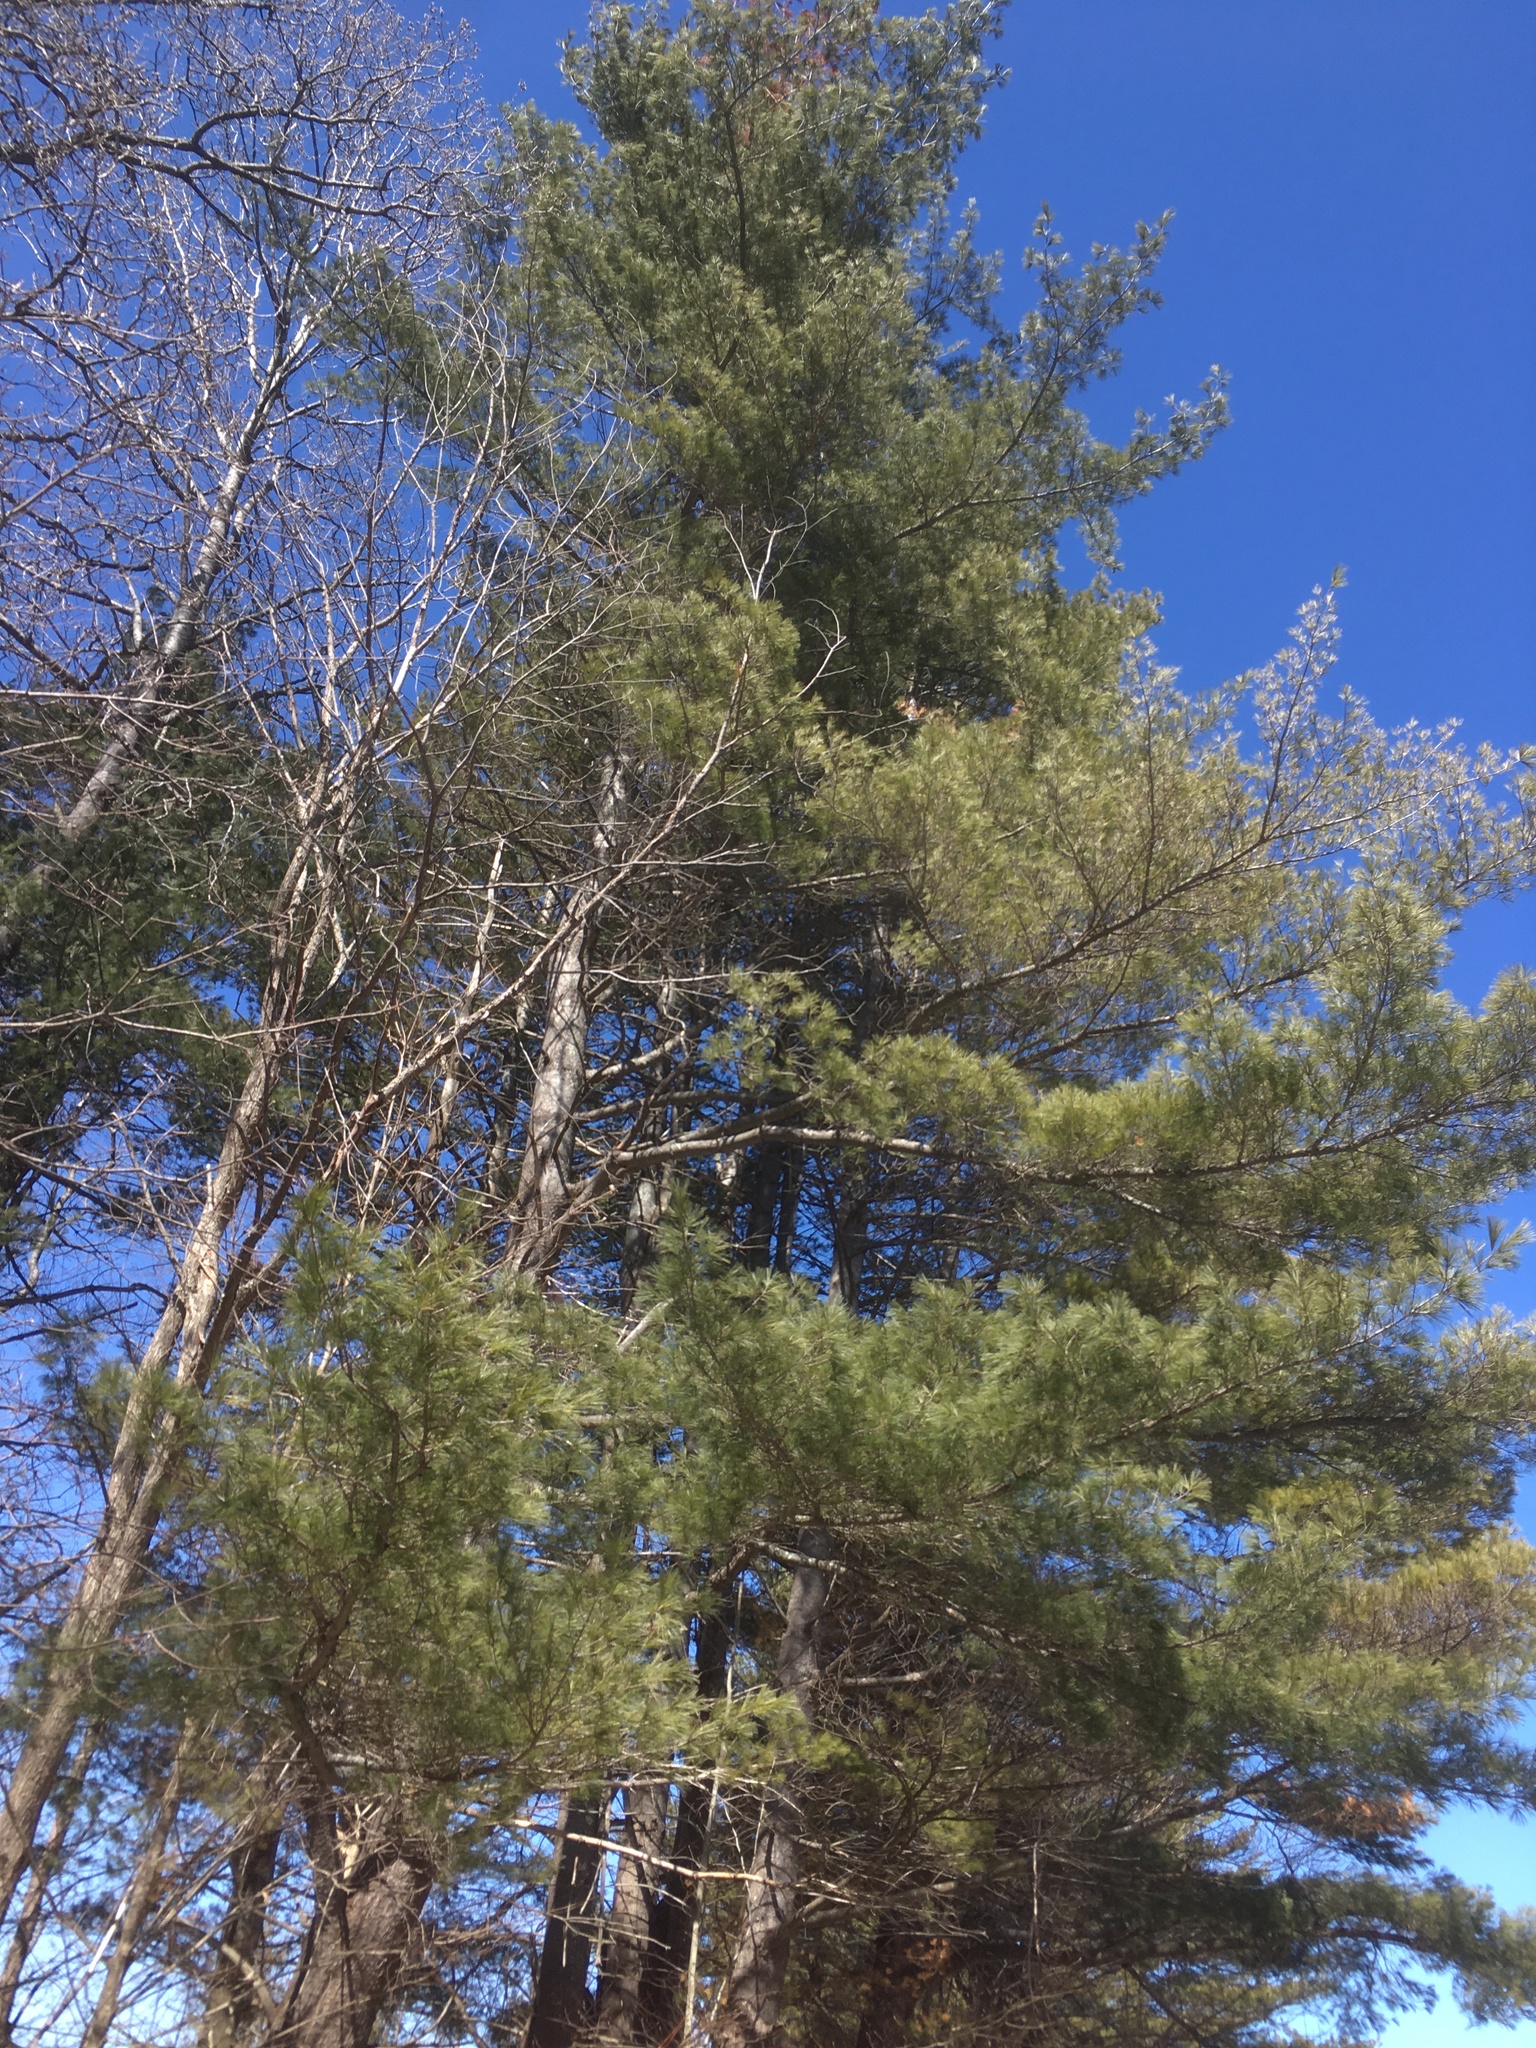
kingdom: Plantae
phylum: Tracheophyta
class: Pinopsida
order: Pinales
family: Pinaceae
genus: Pinus
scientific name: Pinus strobus
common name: Weymouth pine
